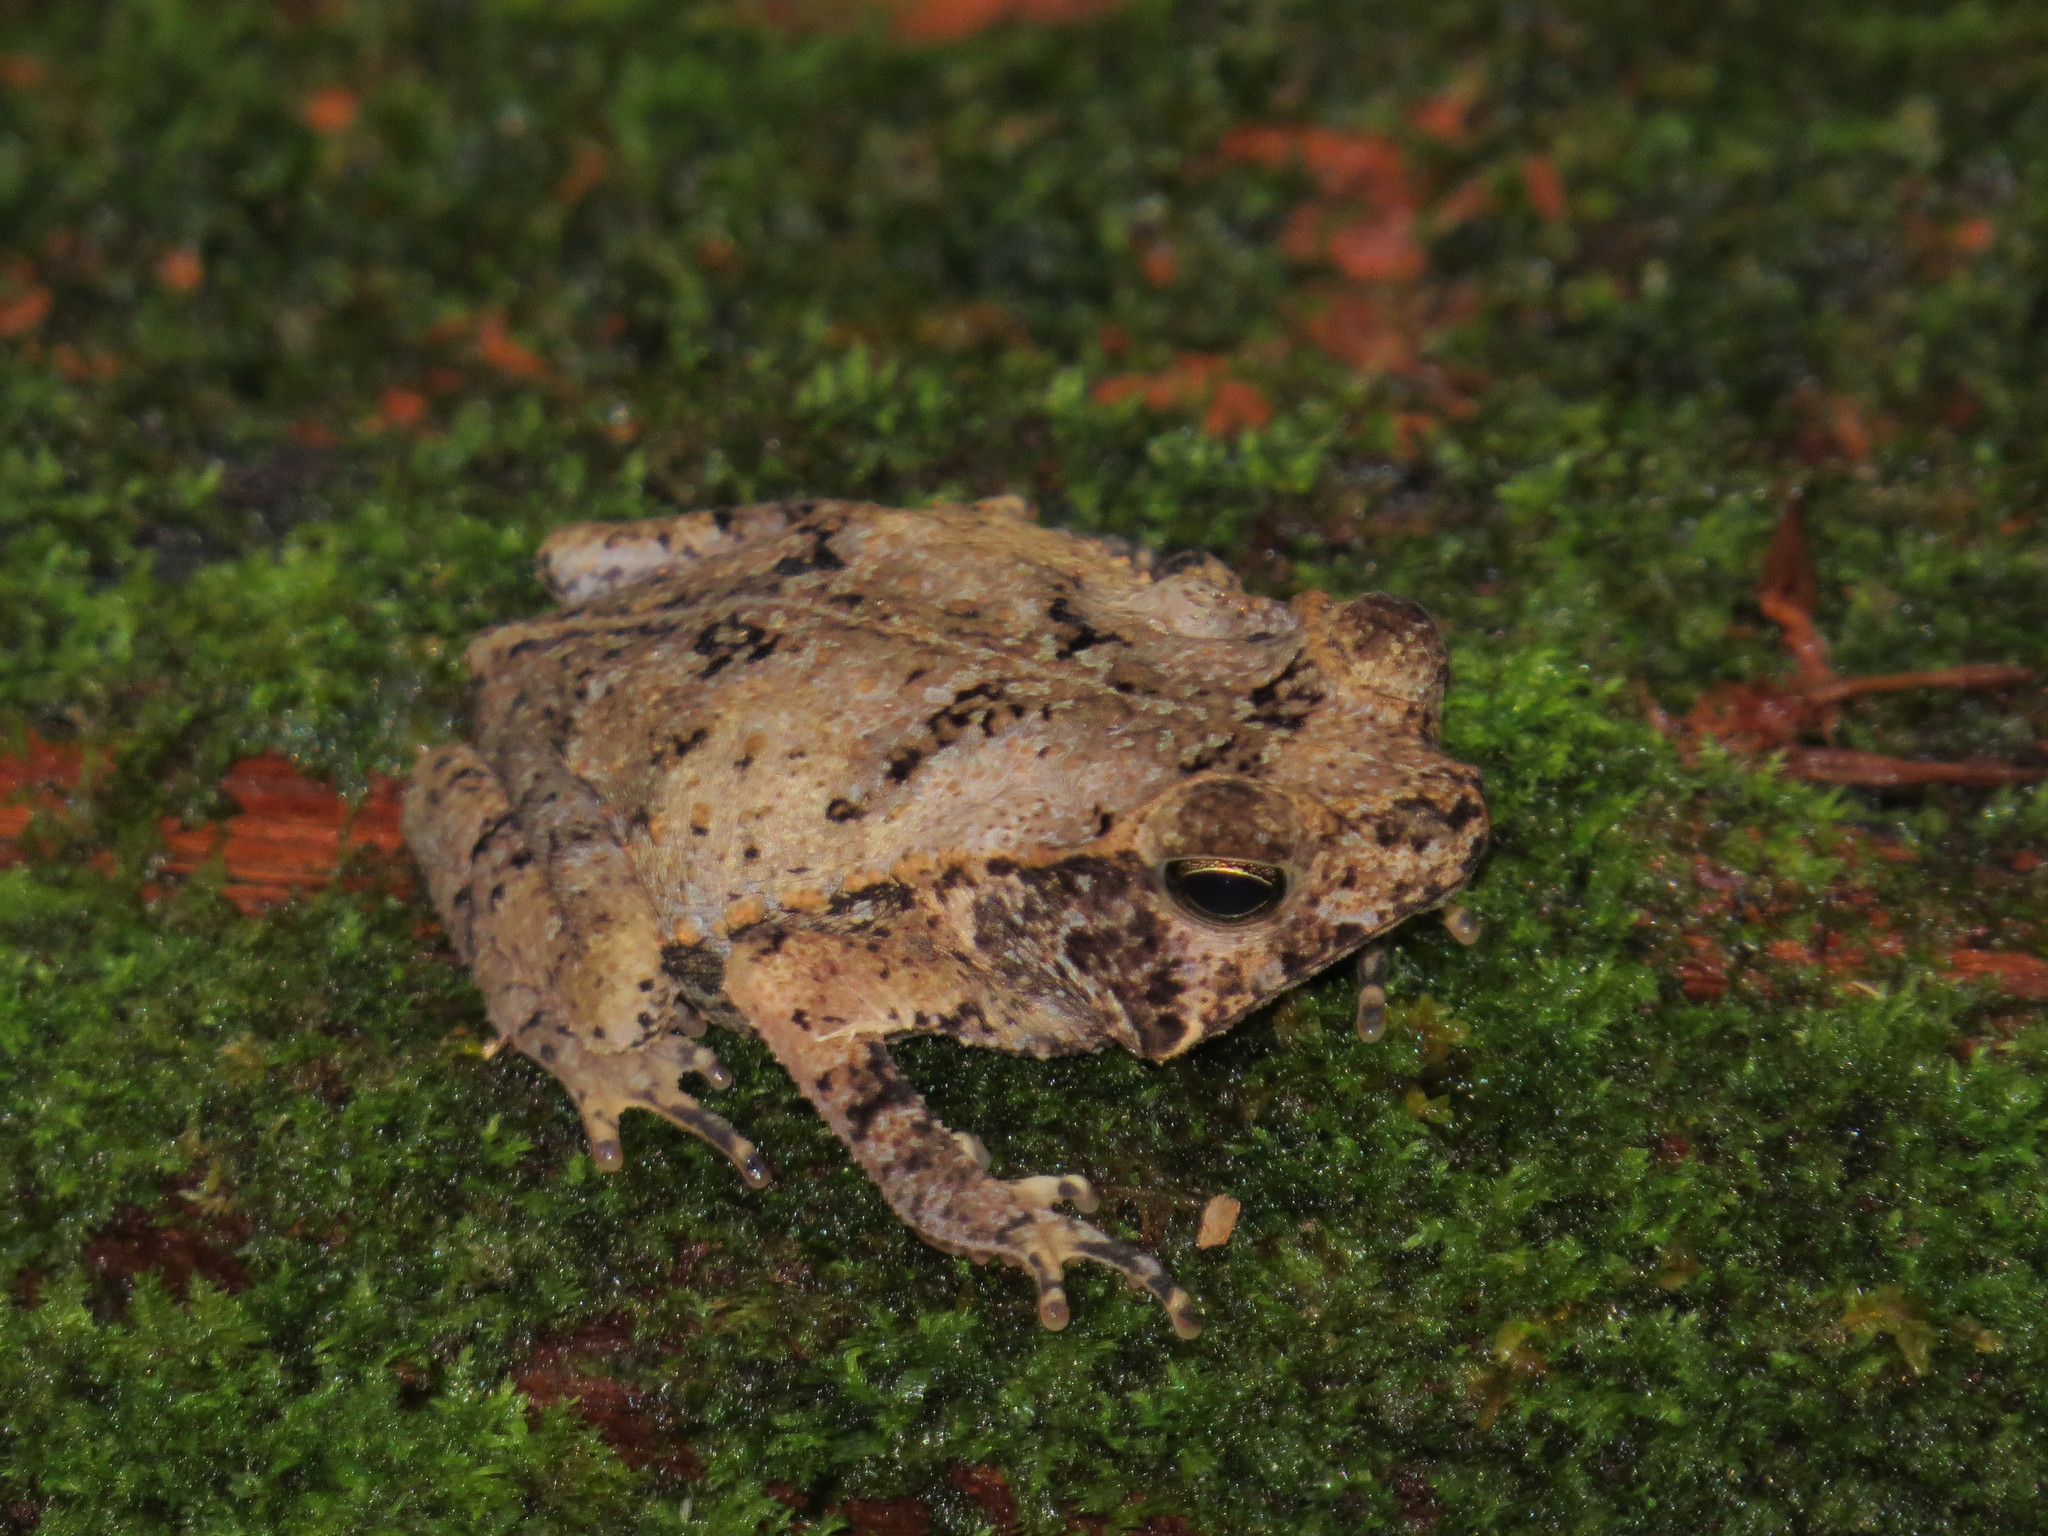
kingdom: Animalia
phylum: Chordata
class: Amphibia
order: Anura
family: Bufonidae
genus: Rhinella
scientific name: Rhinella margaritifera
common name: Mitred toad
